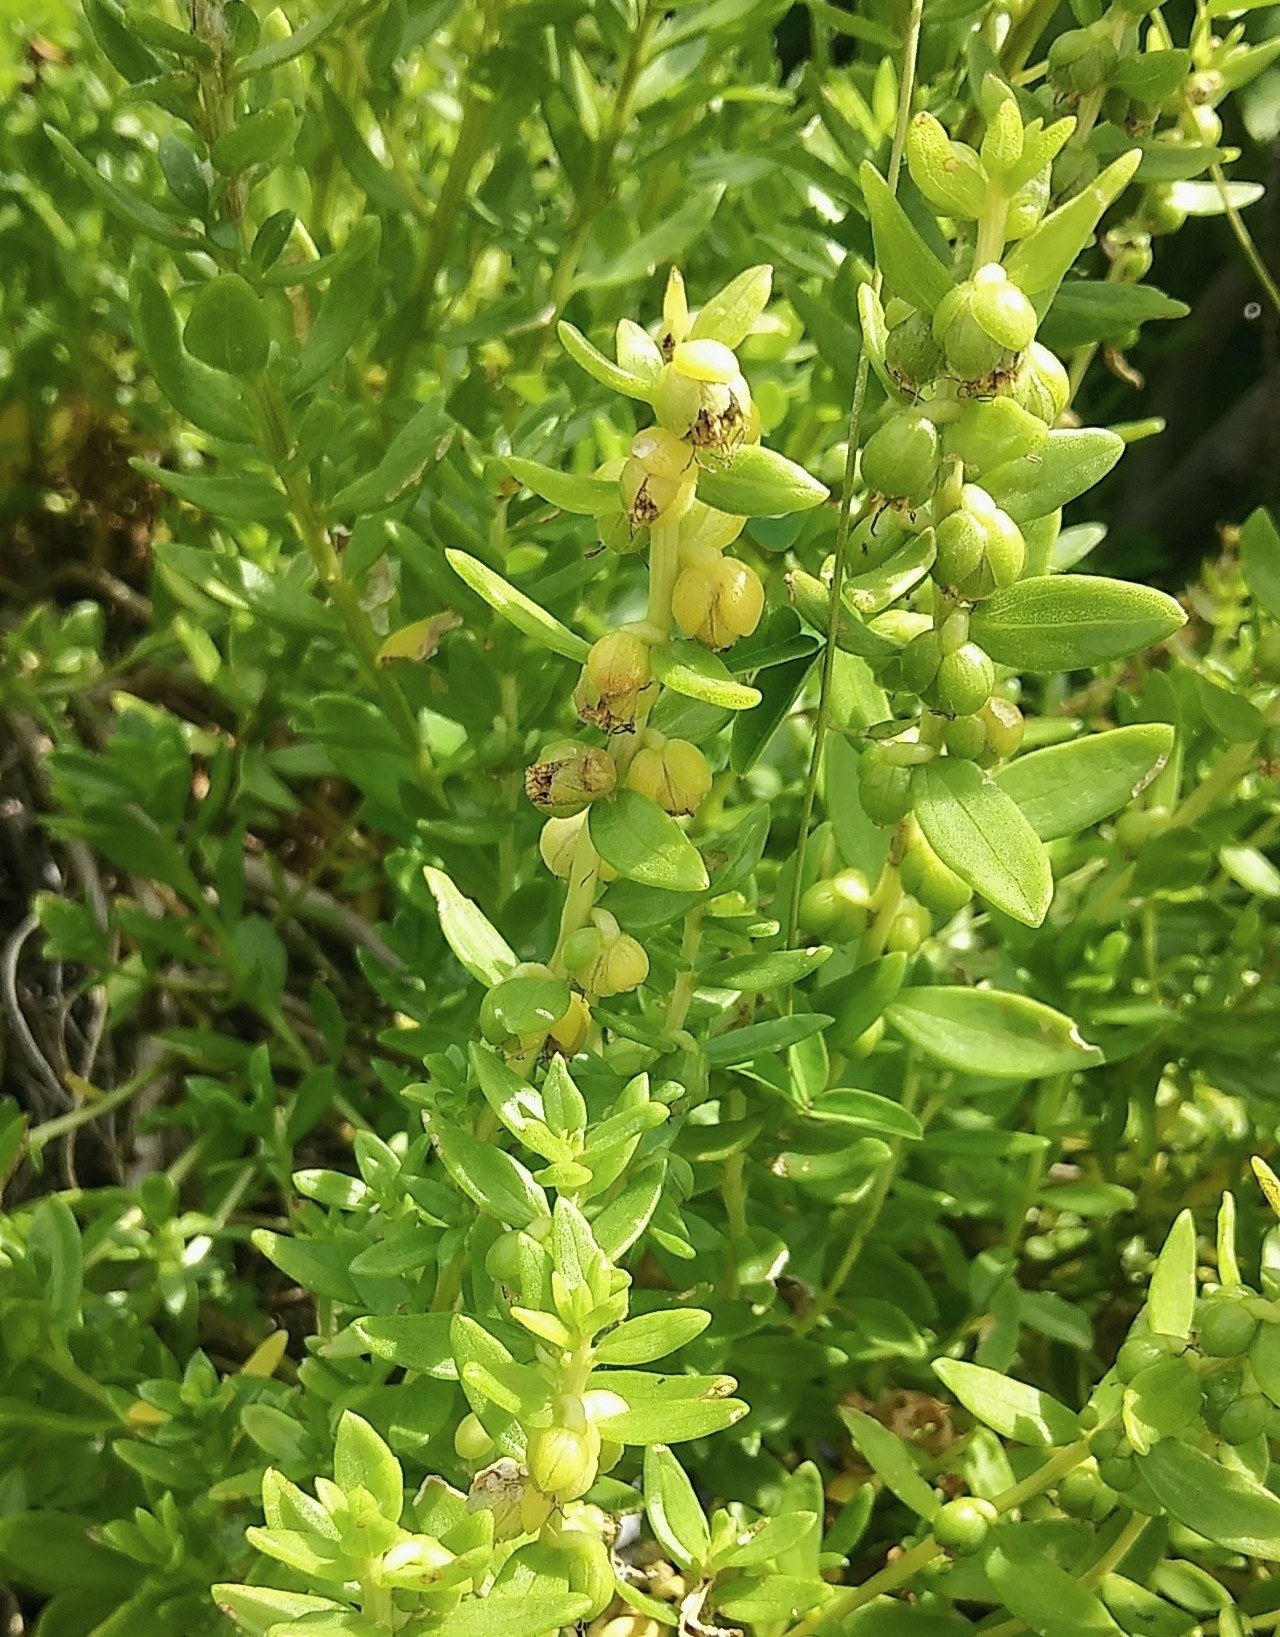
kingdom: Plantae
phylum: Tracheophyta
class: Magnoliopsida
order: Asterales
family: Asteraceae
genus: Iva
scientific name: Iva imbricata
